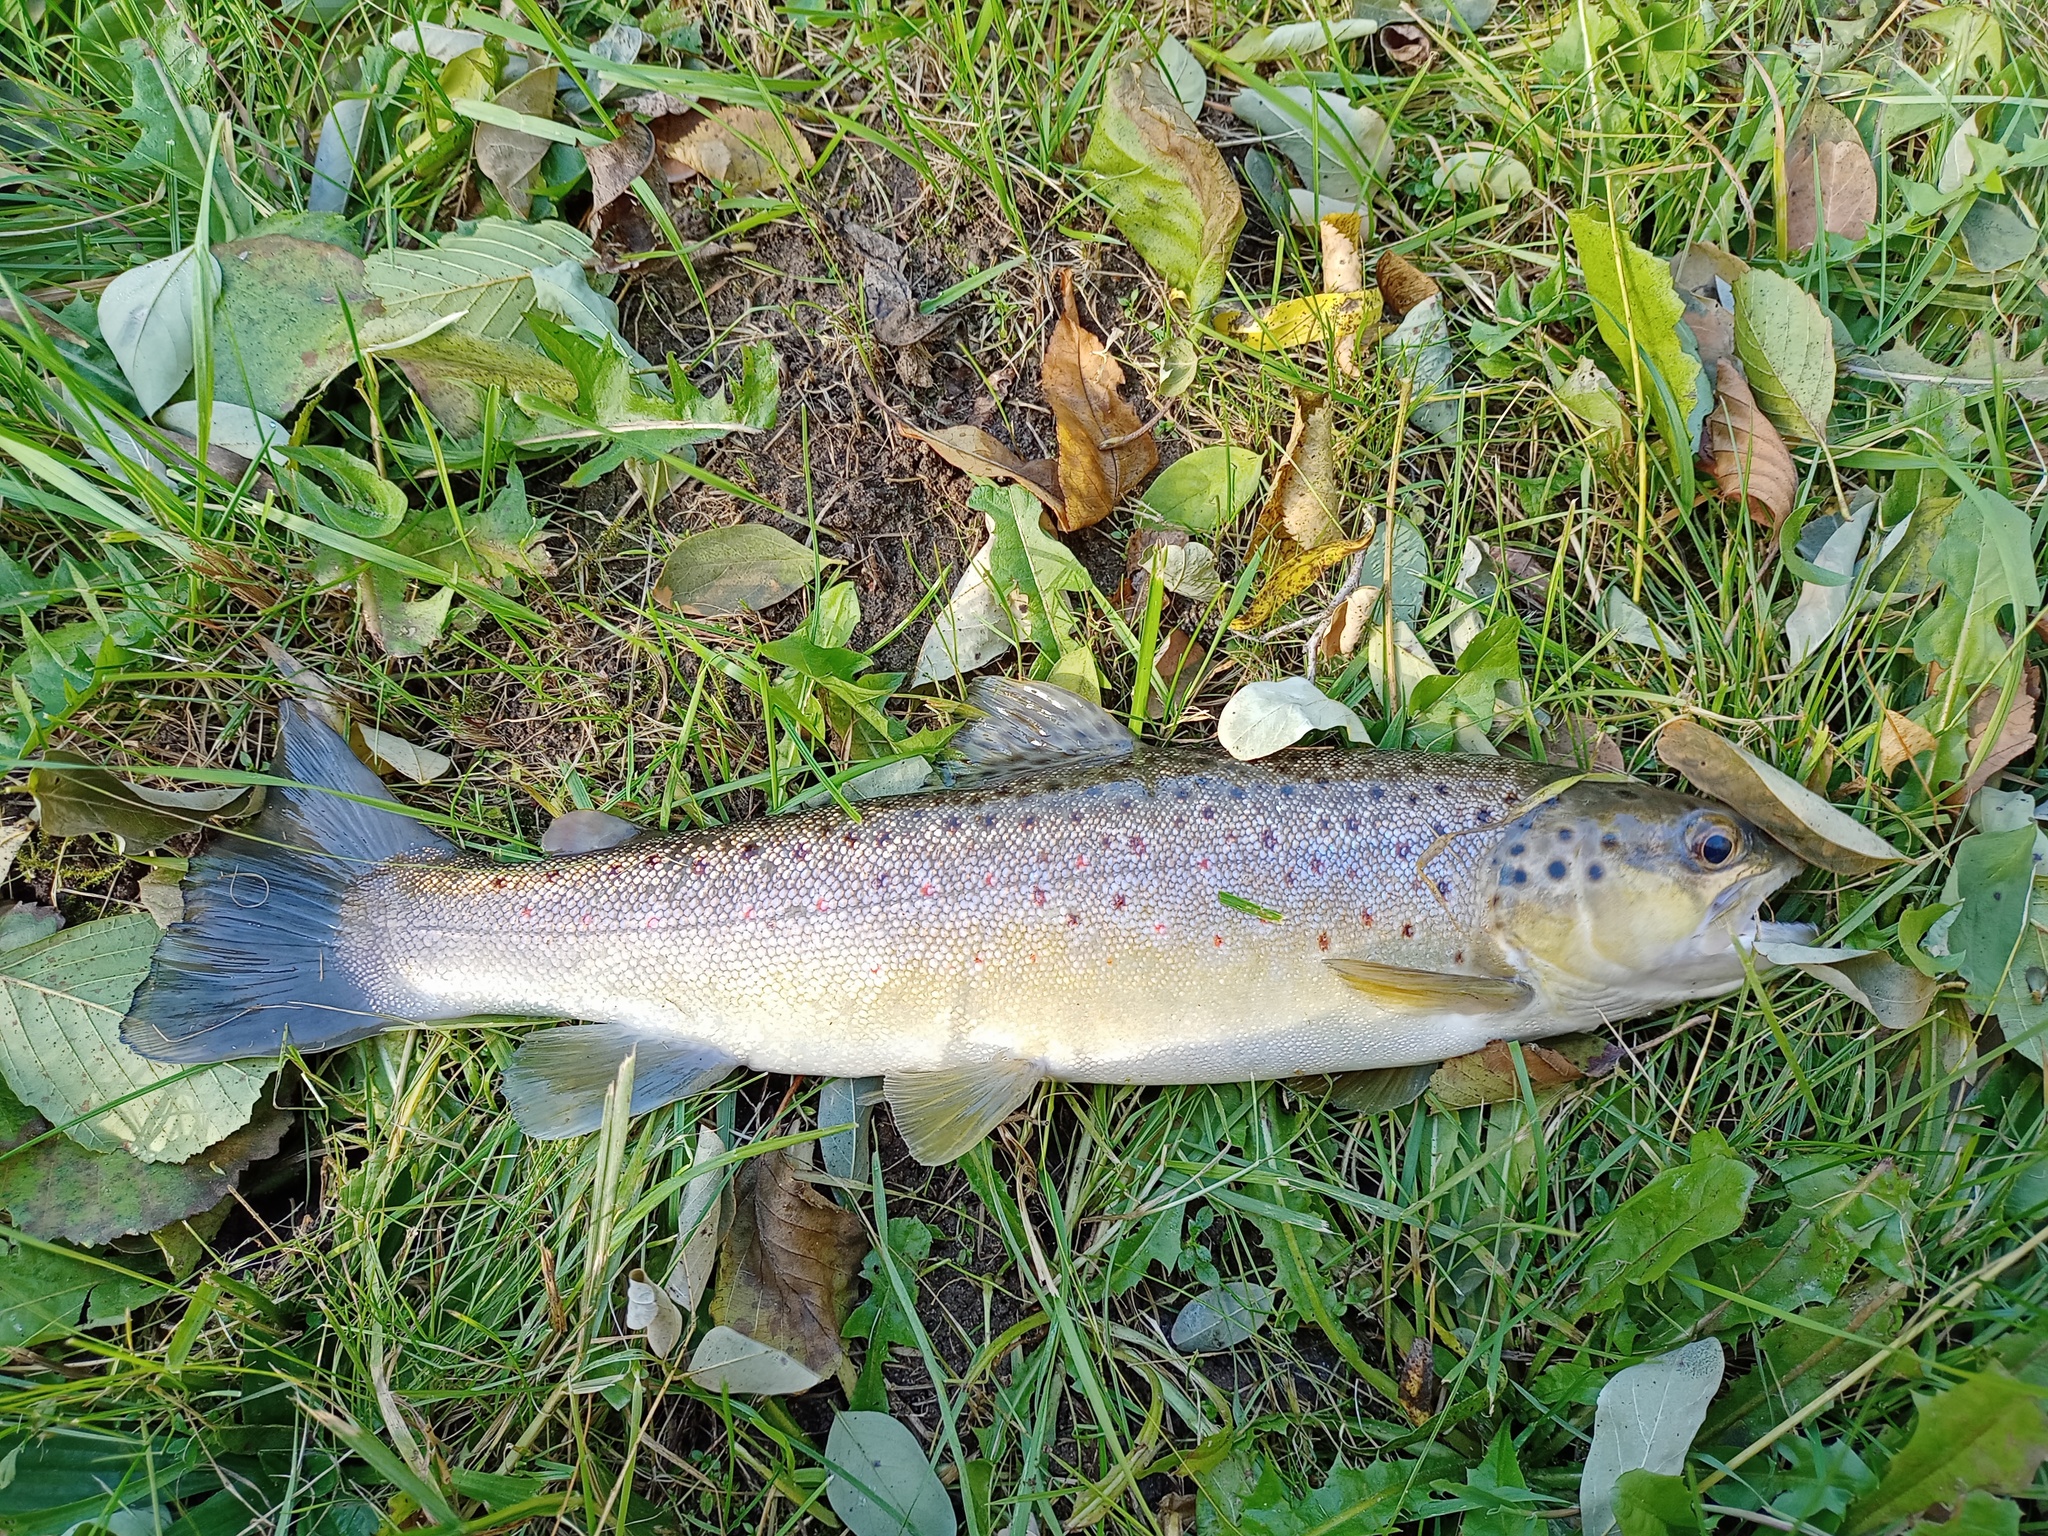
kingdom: Animalia
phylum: Chordata
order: Salmoniformes
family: Salmonidae
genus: Salmo
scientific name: Salmo trutta
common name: Brown trout
